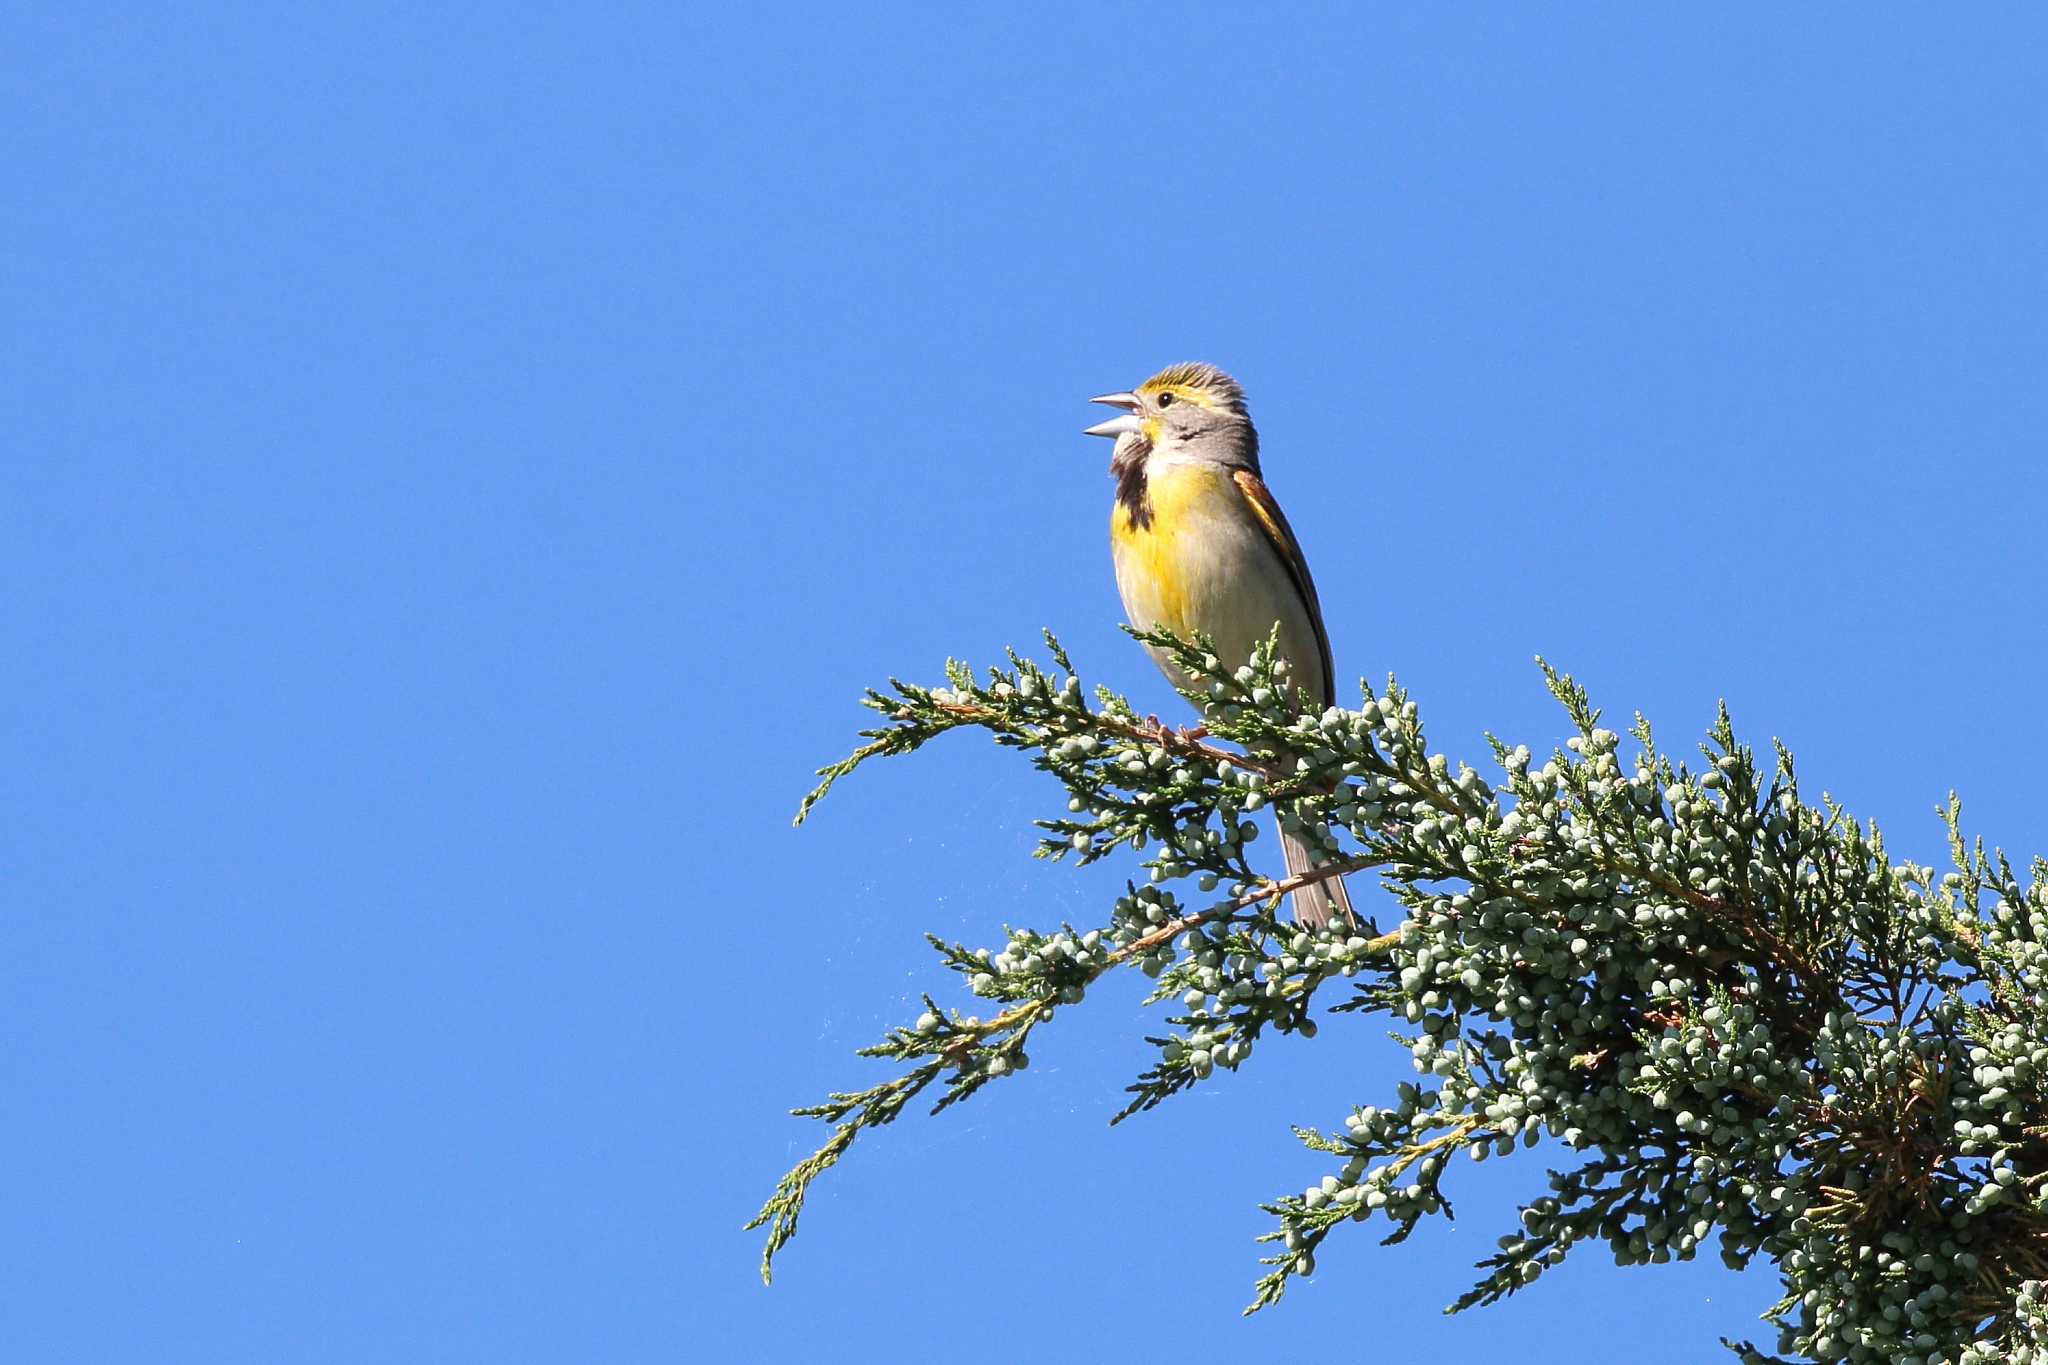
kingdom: Animalia
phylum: Chordata
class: Aves
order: Passeriformes
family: Cardinalidae
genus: Spiza
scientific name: Spiza americana
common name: Dickcissel
